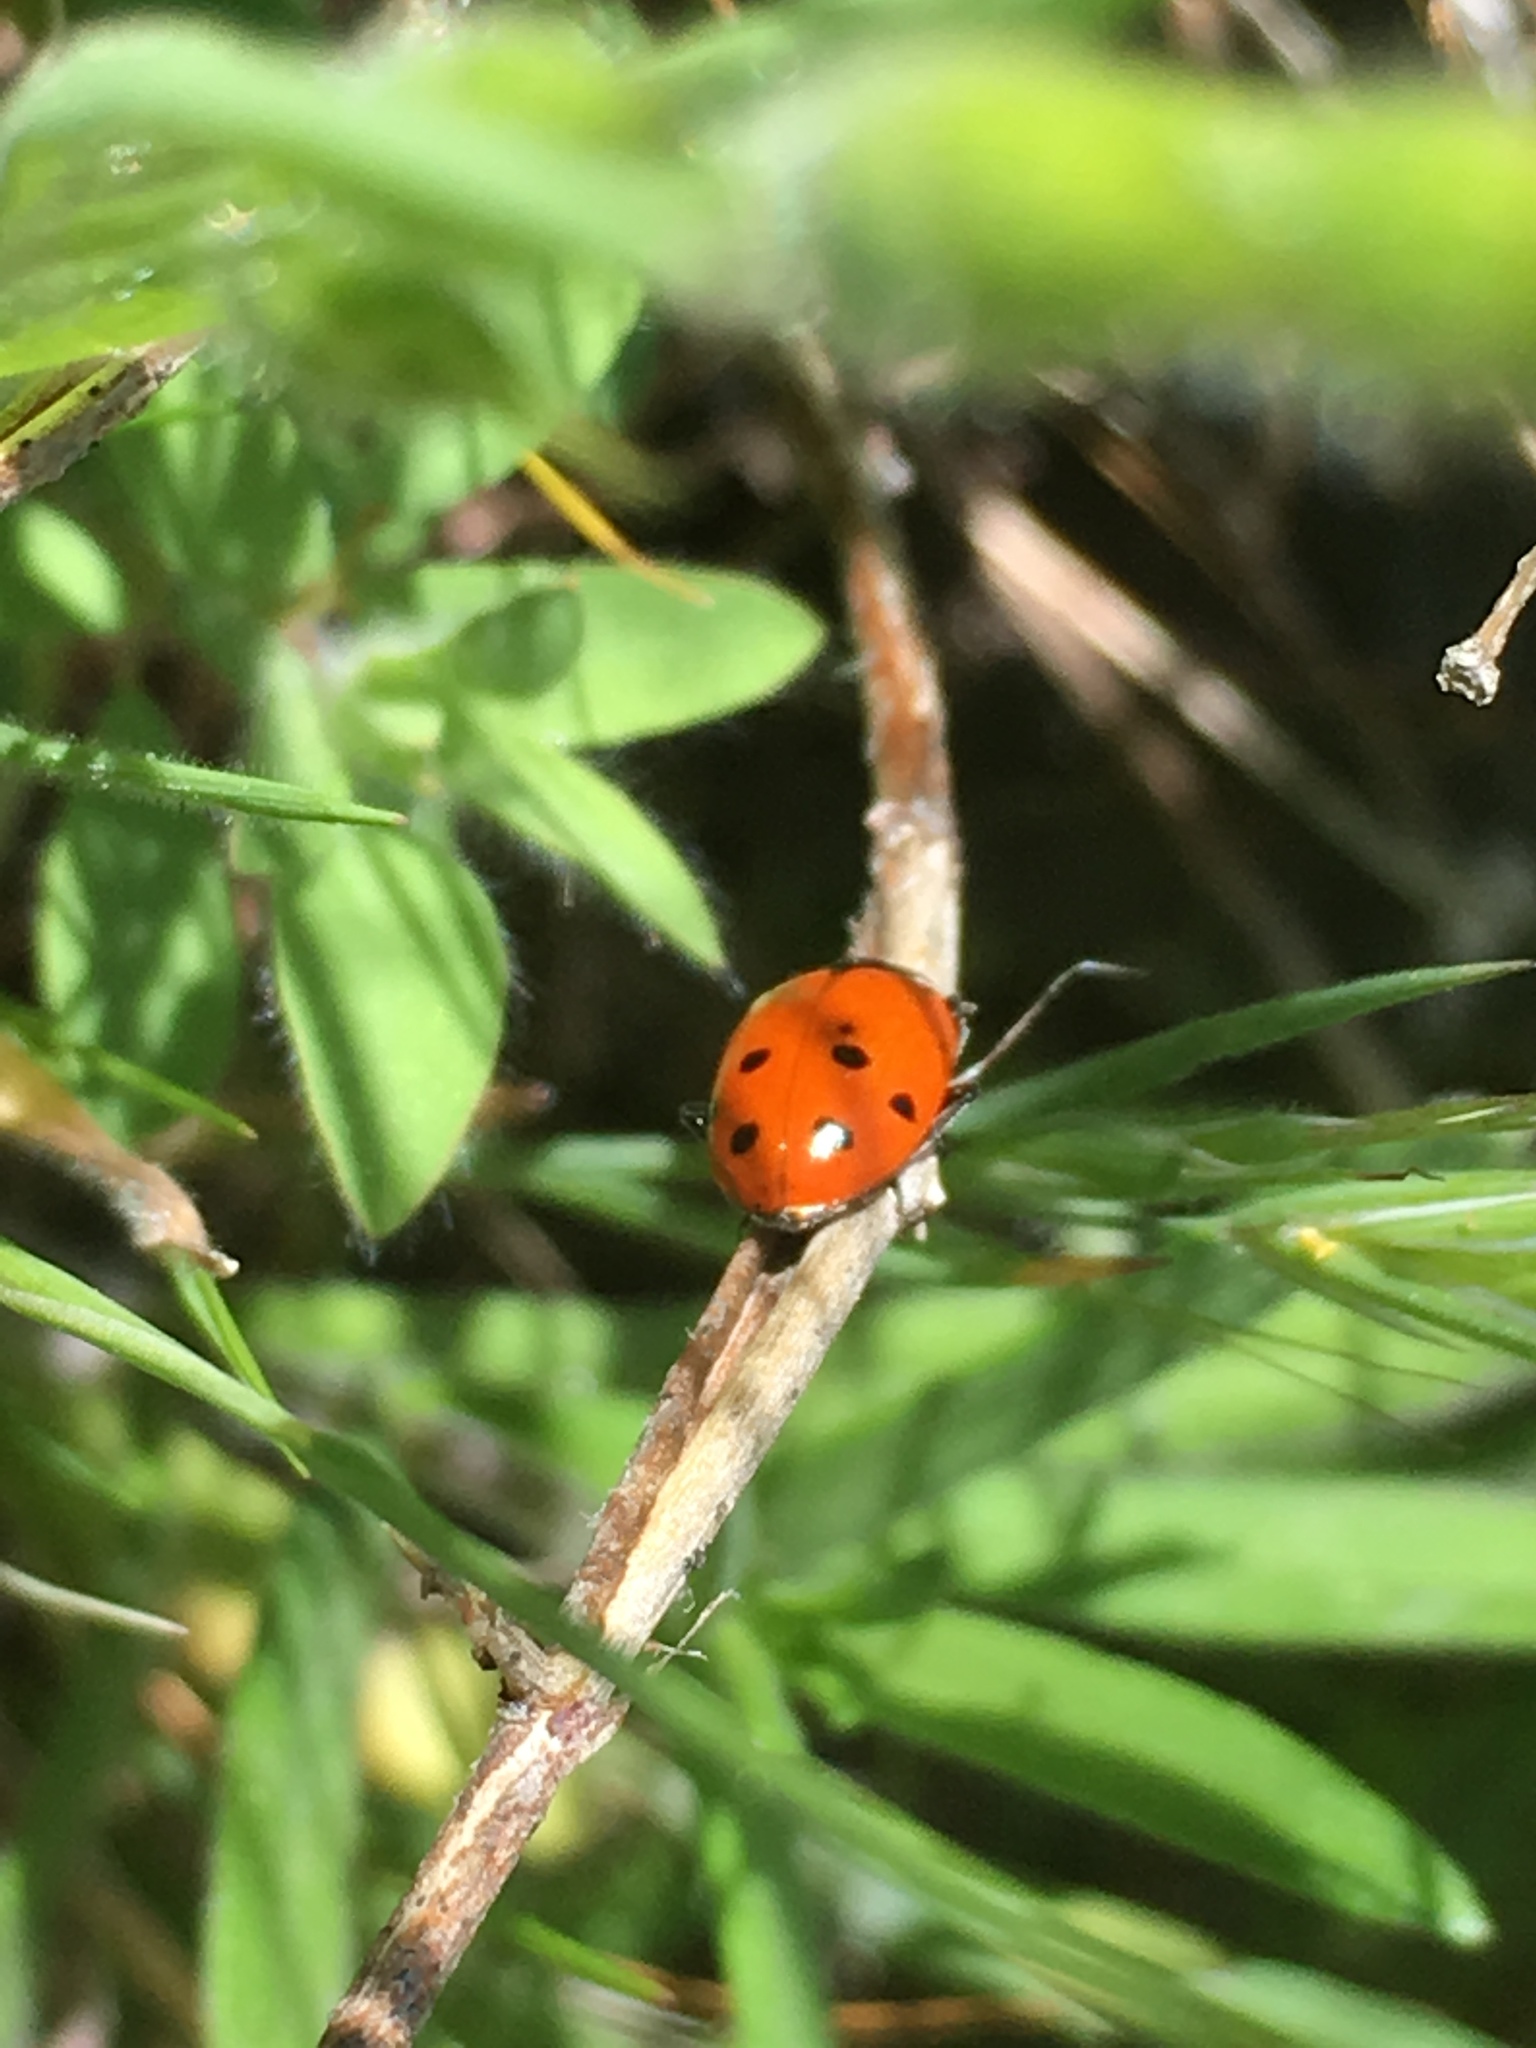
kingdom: Animalia
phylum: Arthropoda
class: Insecta
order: Coleoptera
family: Coccinellidae
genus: Hippodamia
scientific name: Hippodamia convergens
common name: Convergent lady beetle
